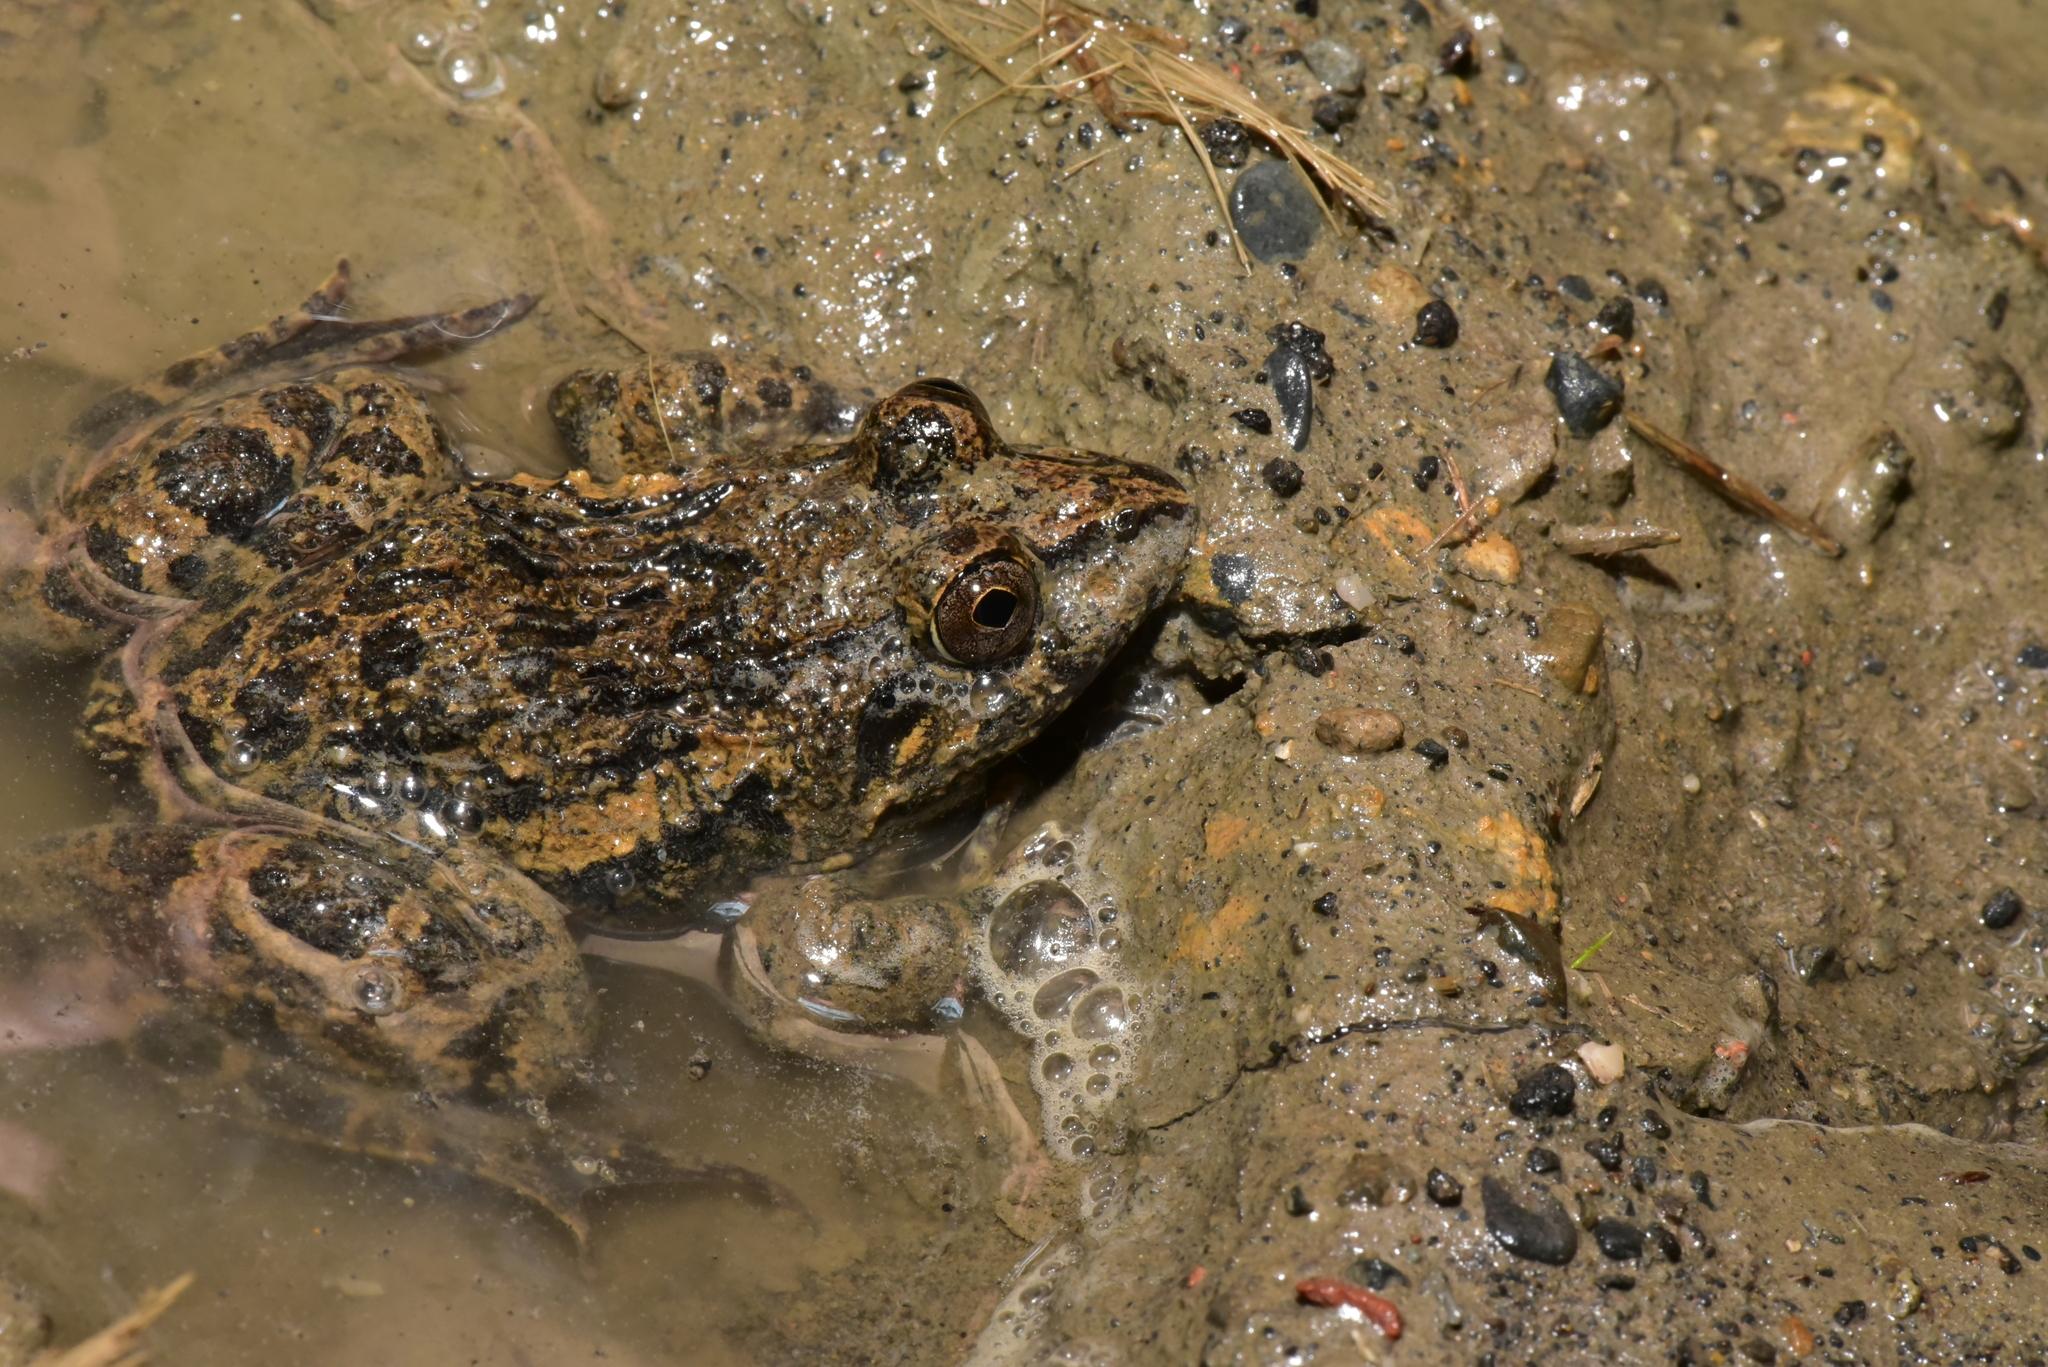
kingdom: Animalia
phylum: Chordata
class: Amphibia
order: Anura
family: Dicroglossidae
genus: Fejervarya
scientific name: Fejervarya cancrivora
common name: Crab-eating frog/mangrove frog/rice field frog/asian brackish frog
